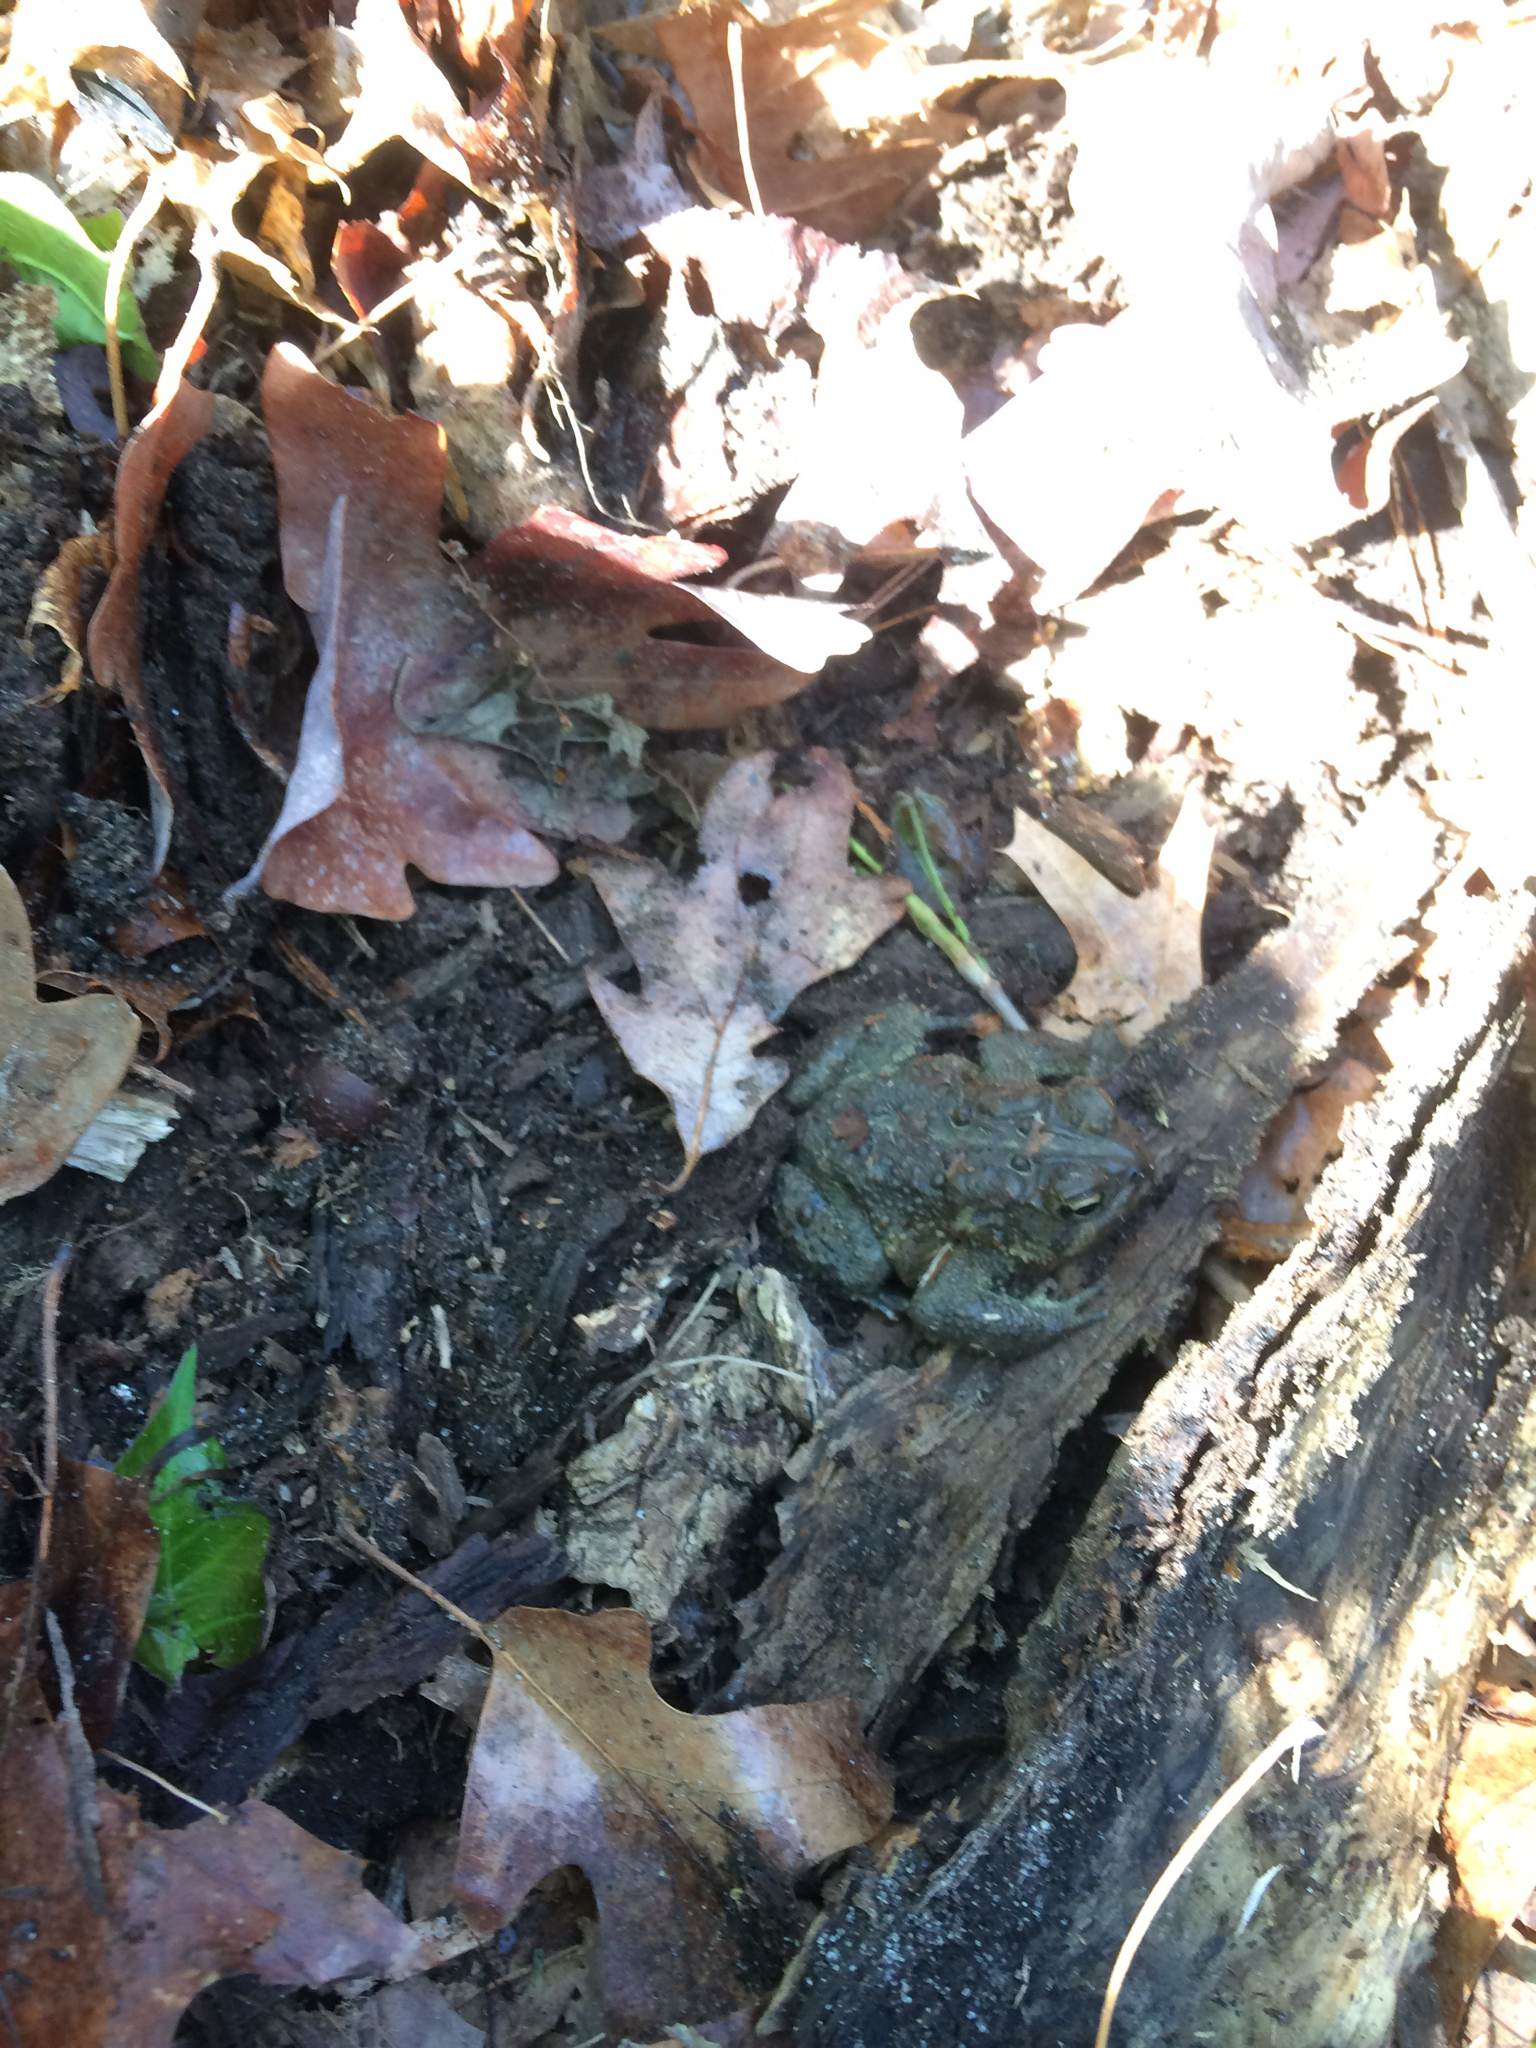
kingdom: Animalia
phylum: Chordata
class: Amphibia
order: Anura
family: Bufonidae
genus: Anaxyrus
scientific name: Anaxyrus americanus
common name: American toad
